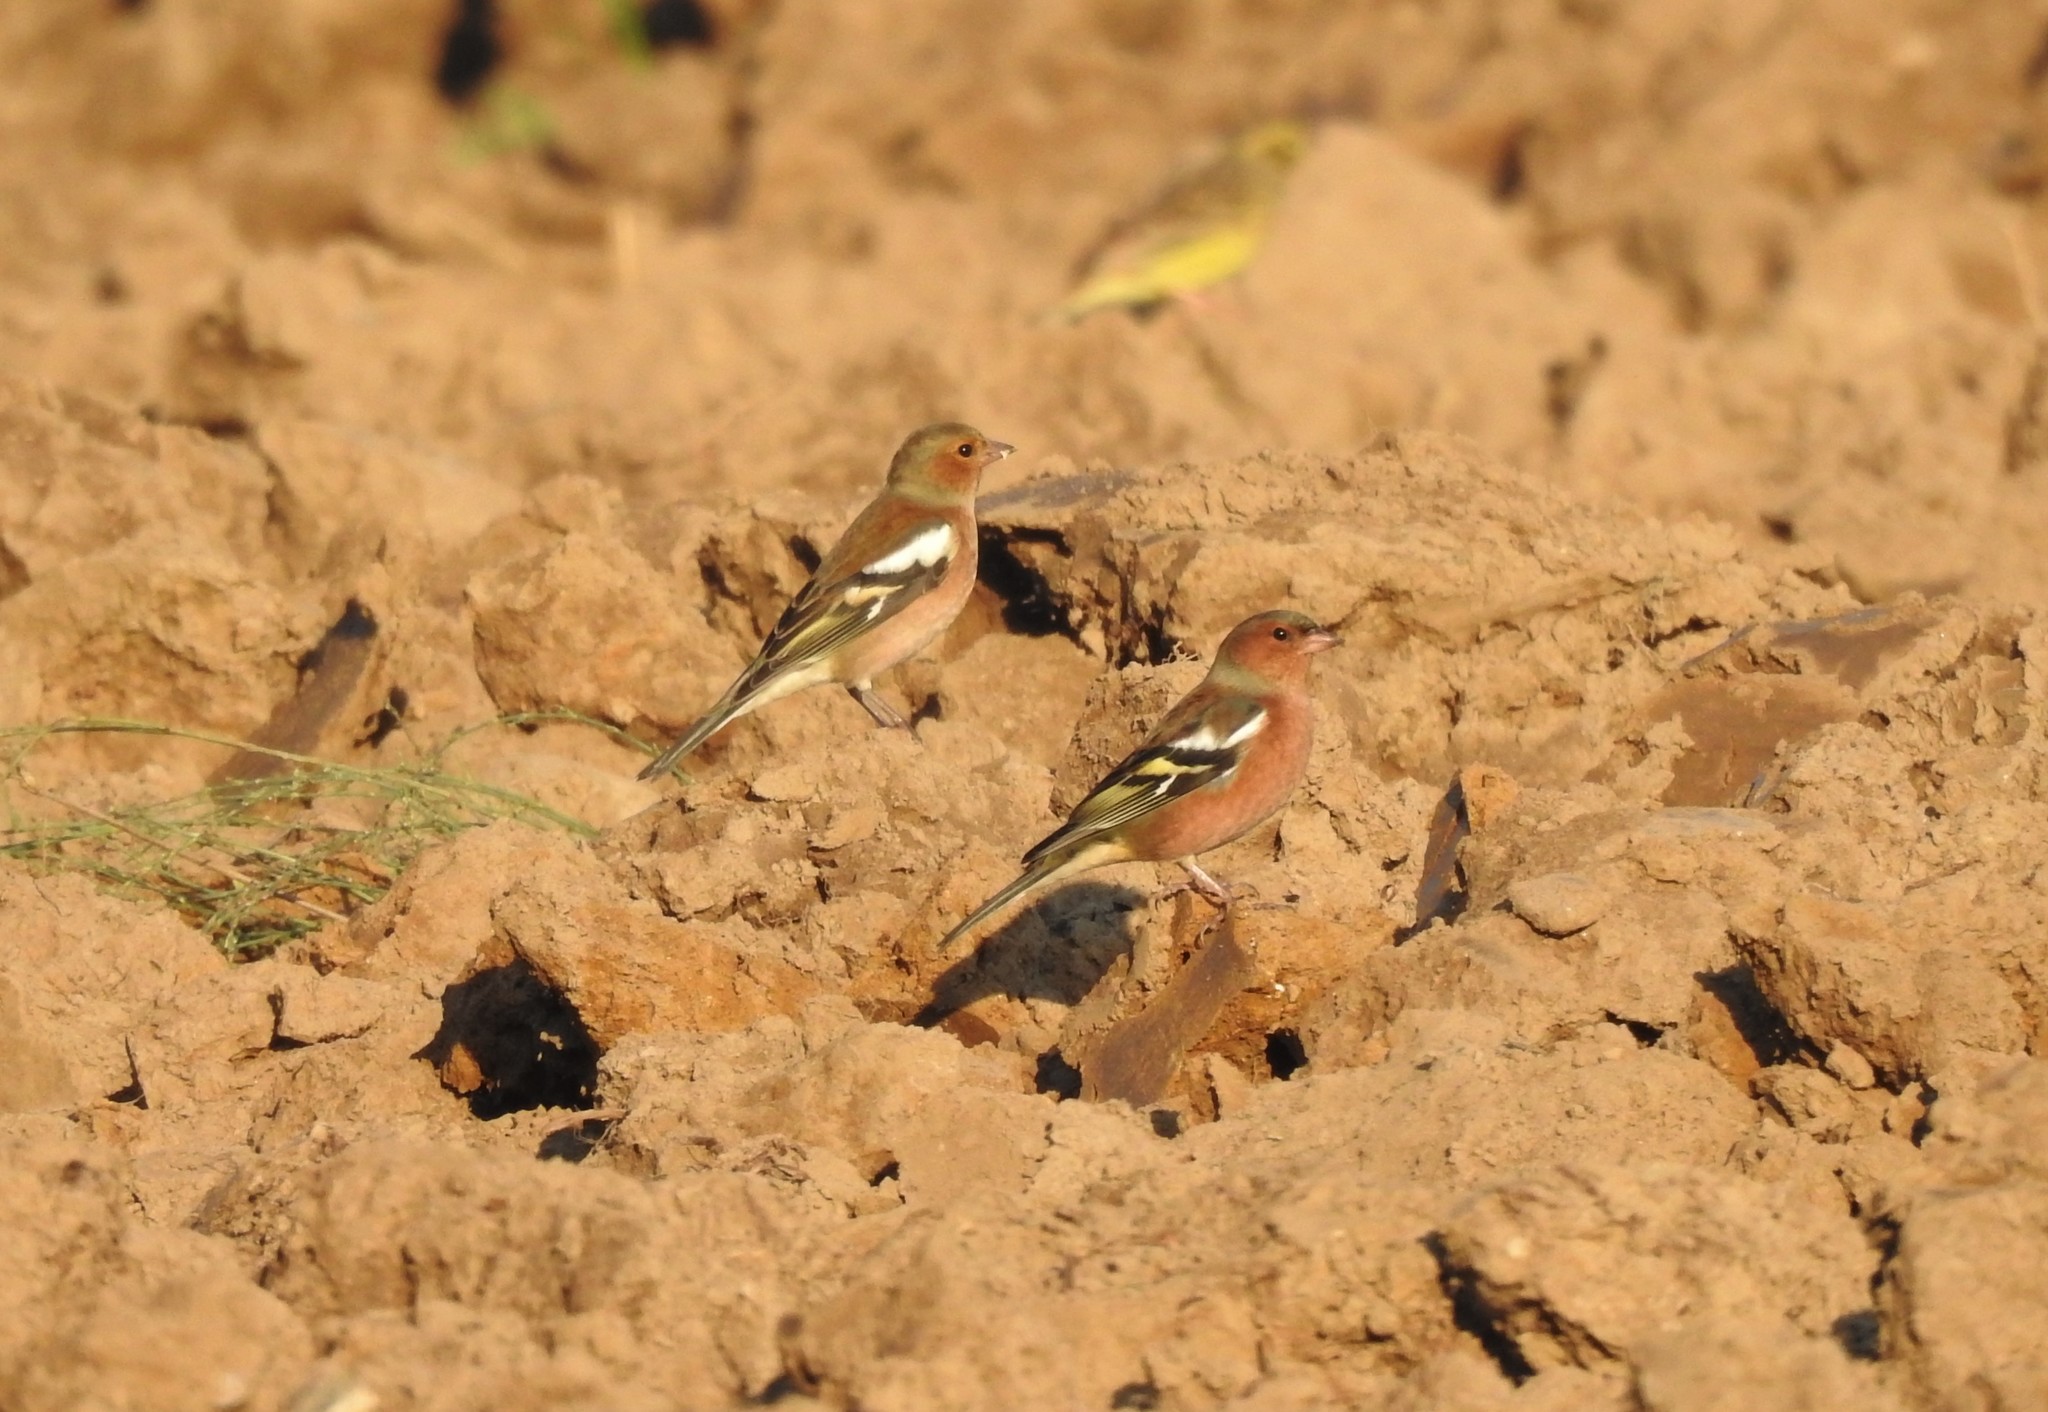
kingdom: Animalia
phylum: Chordata
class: Aves
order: Passeriformes
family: Fringillidae
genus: Fringilla
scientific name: Fringilla coelebs
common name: Common chaffinch
